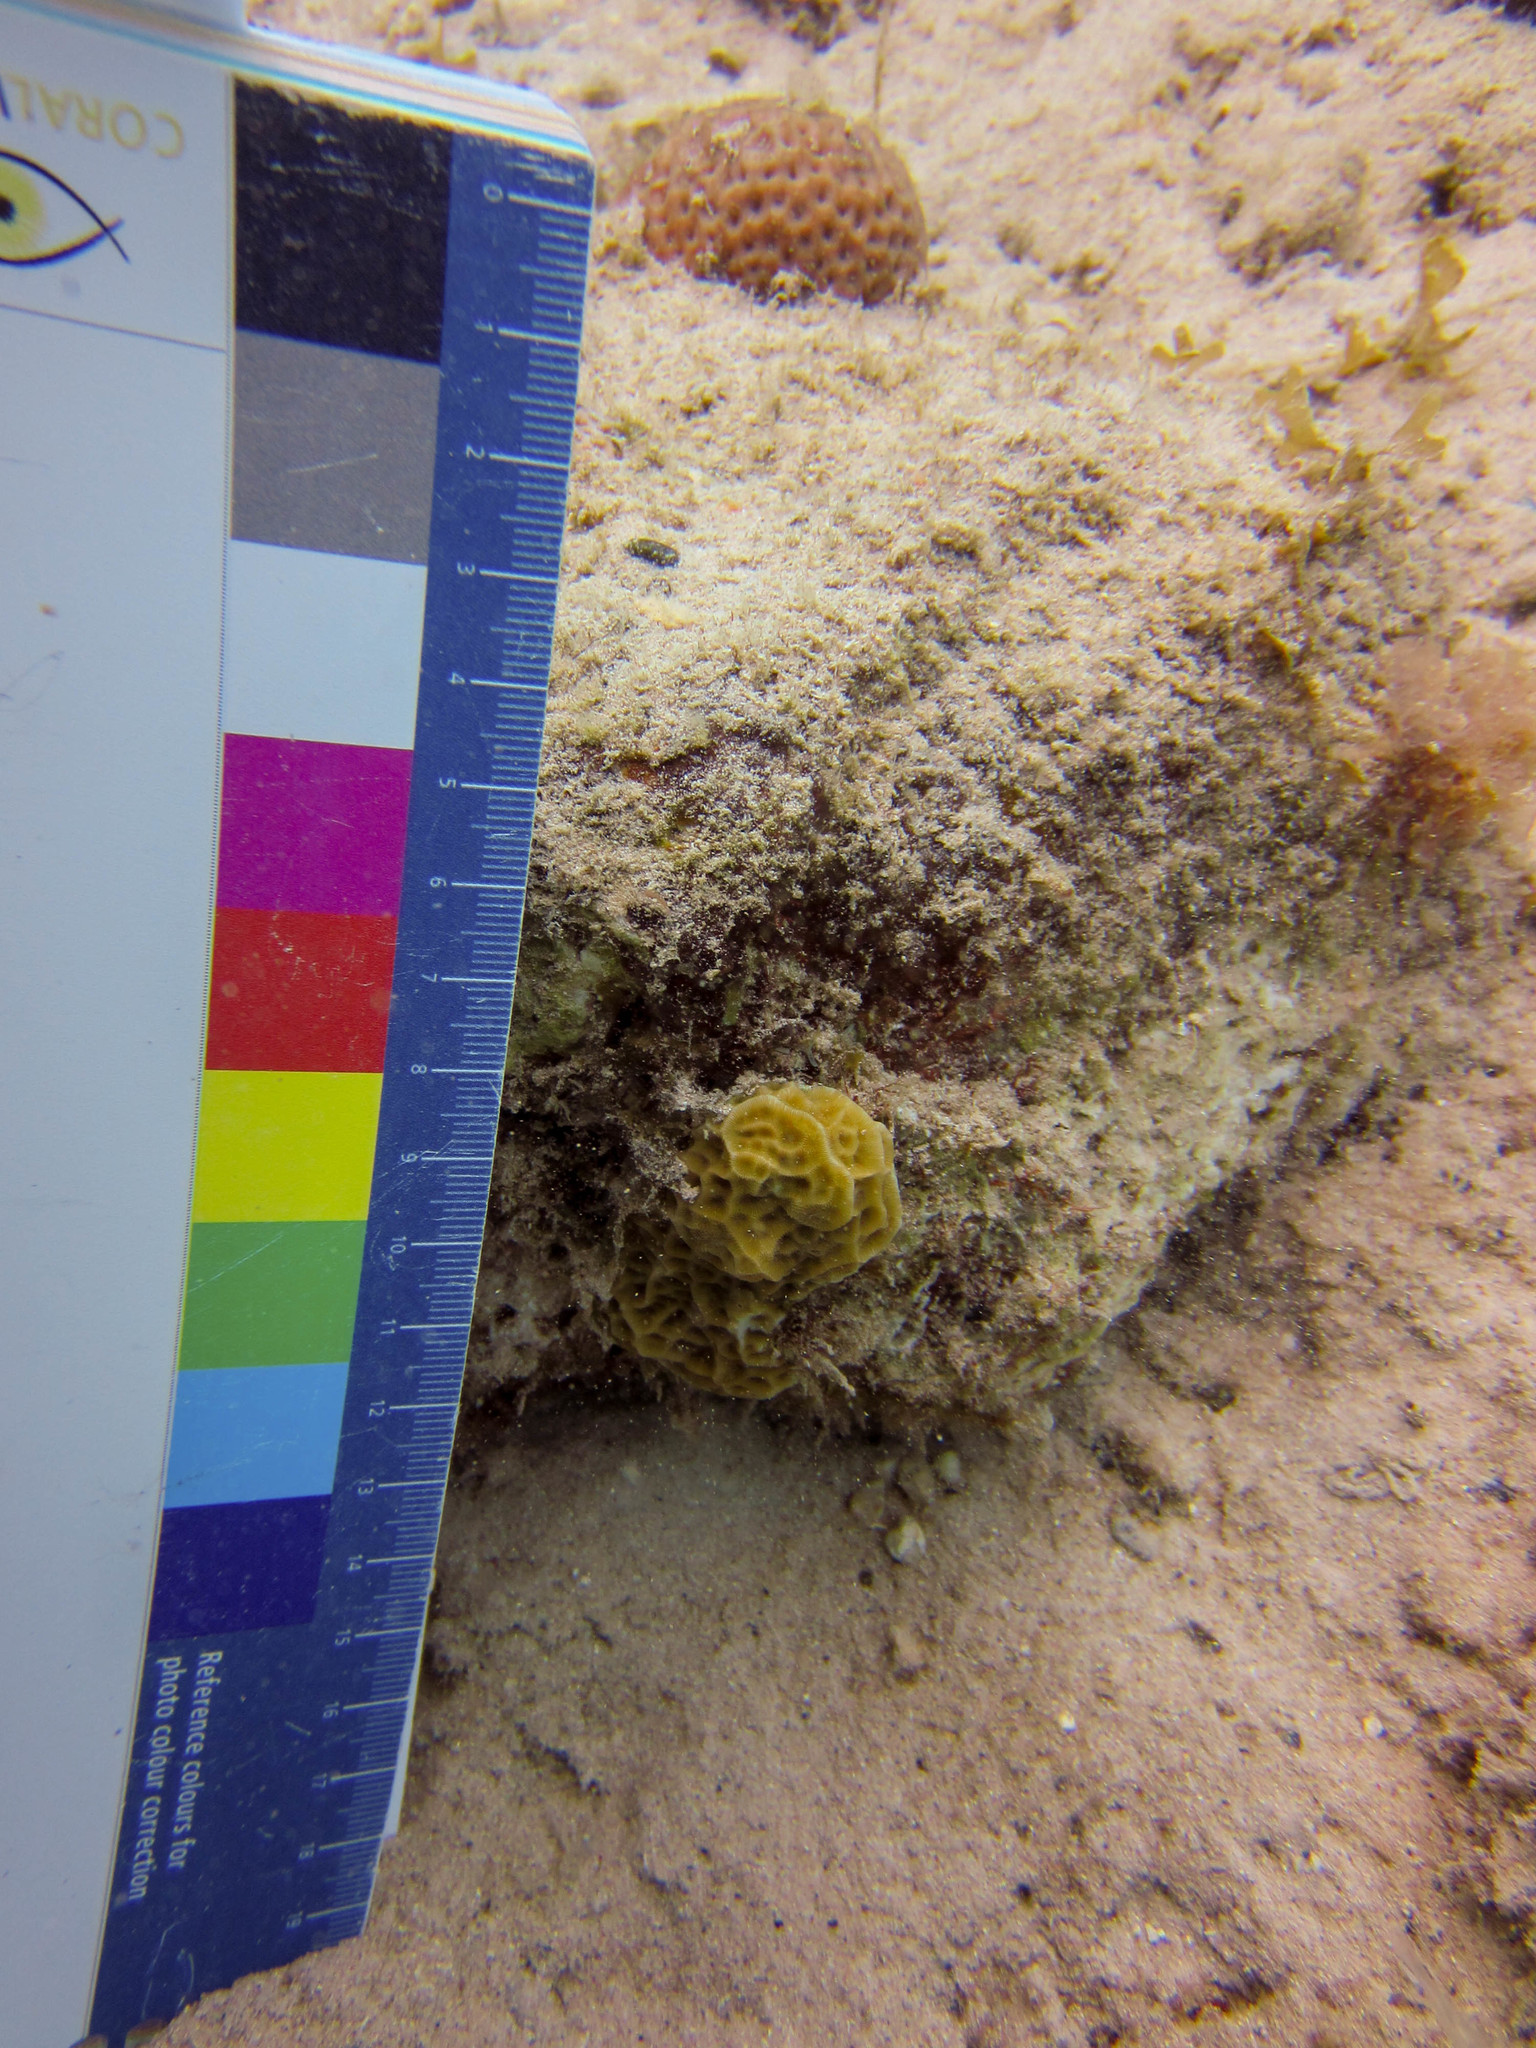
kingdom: Animalia
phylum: Cnidaria
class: Anthozoa
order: Scleractinia
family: Agariciidae
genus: Agaricia
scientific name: Agaricia humilis
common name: Lowrelief lettuce coral
